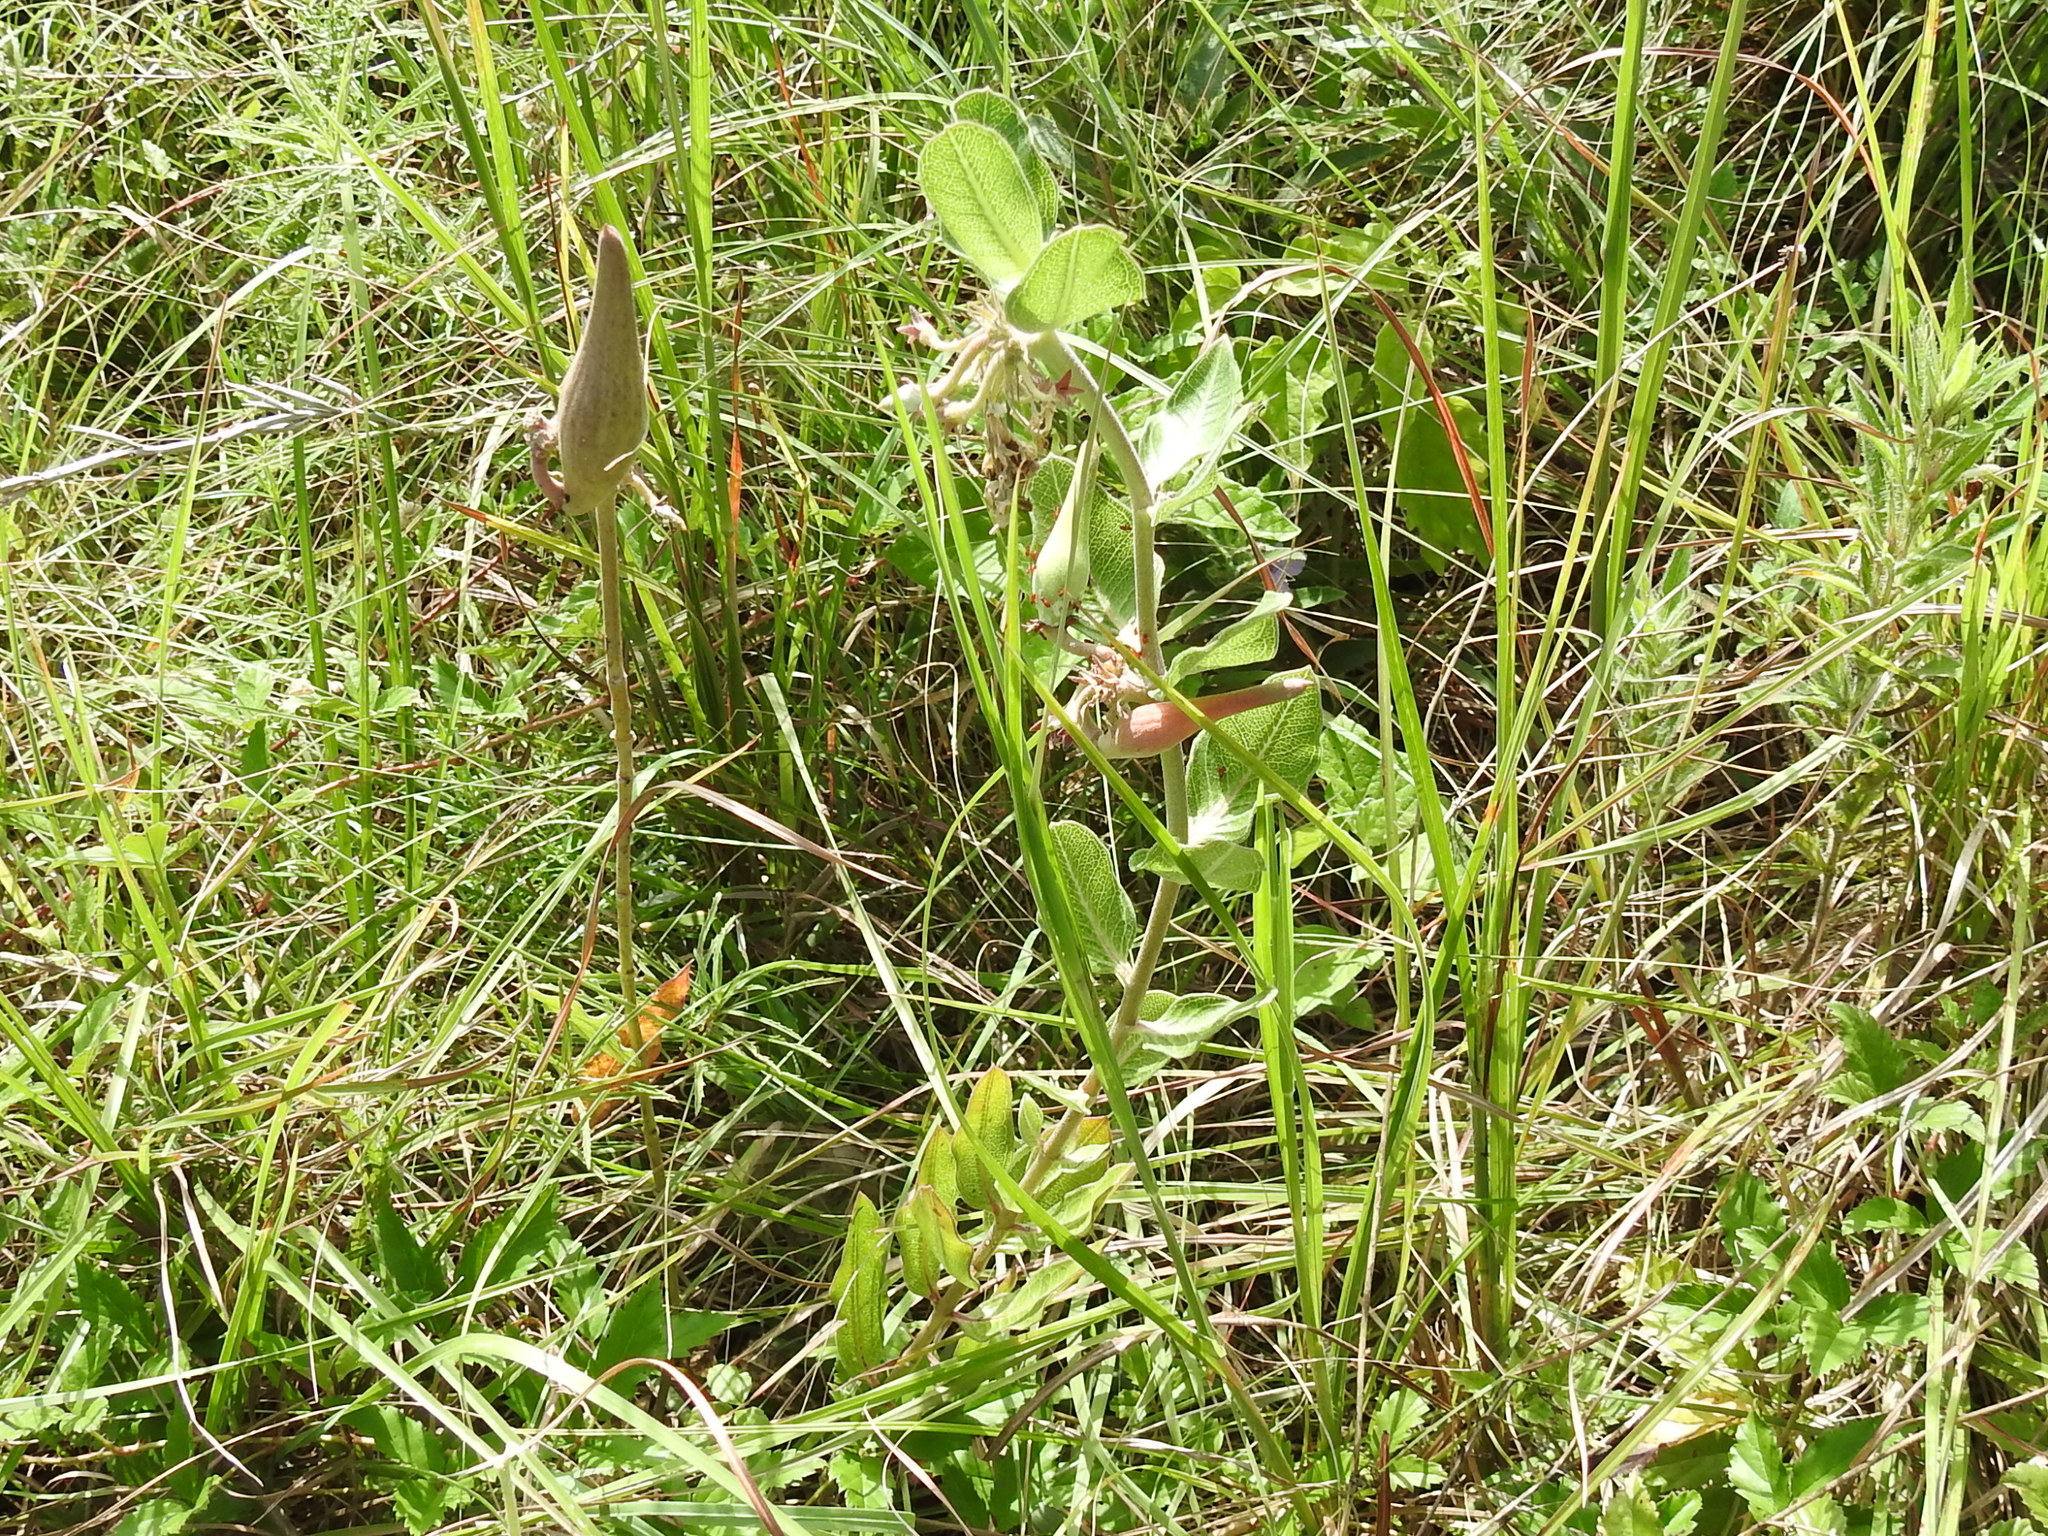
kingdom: Plantae
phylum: Tracheophyta
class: Magnoliopsida
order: Gentianales
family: Apocynaceae
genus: Asclepias
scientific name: Asclepias viridiflora
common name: Green comet milkweed
